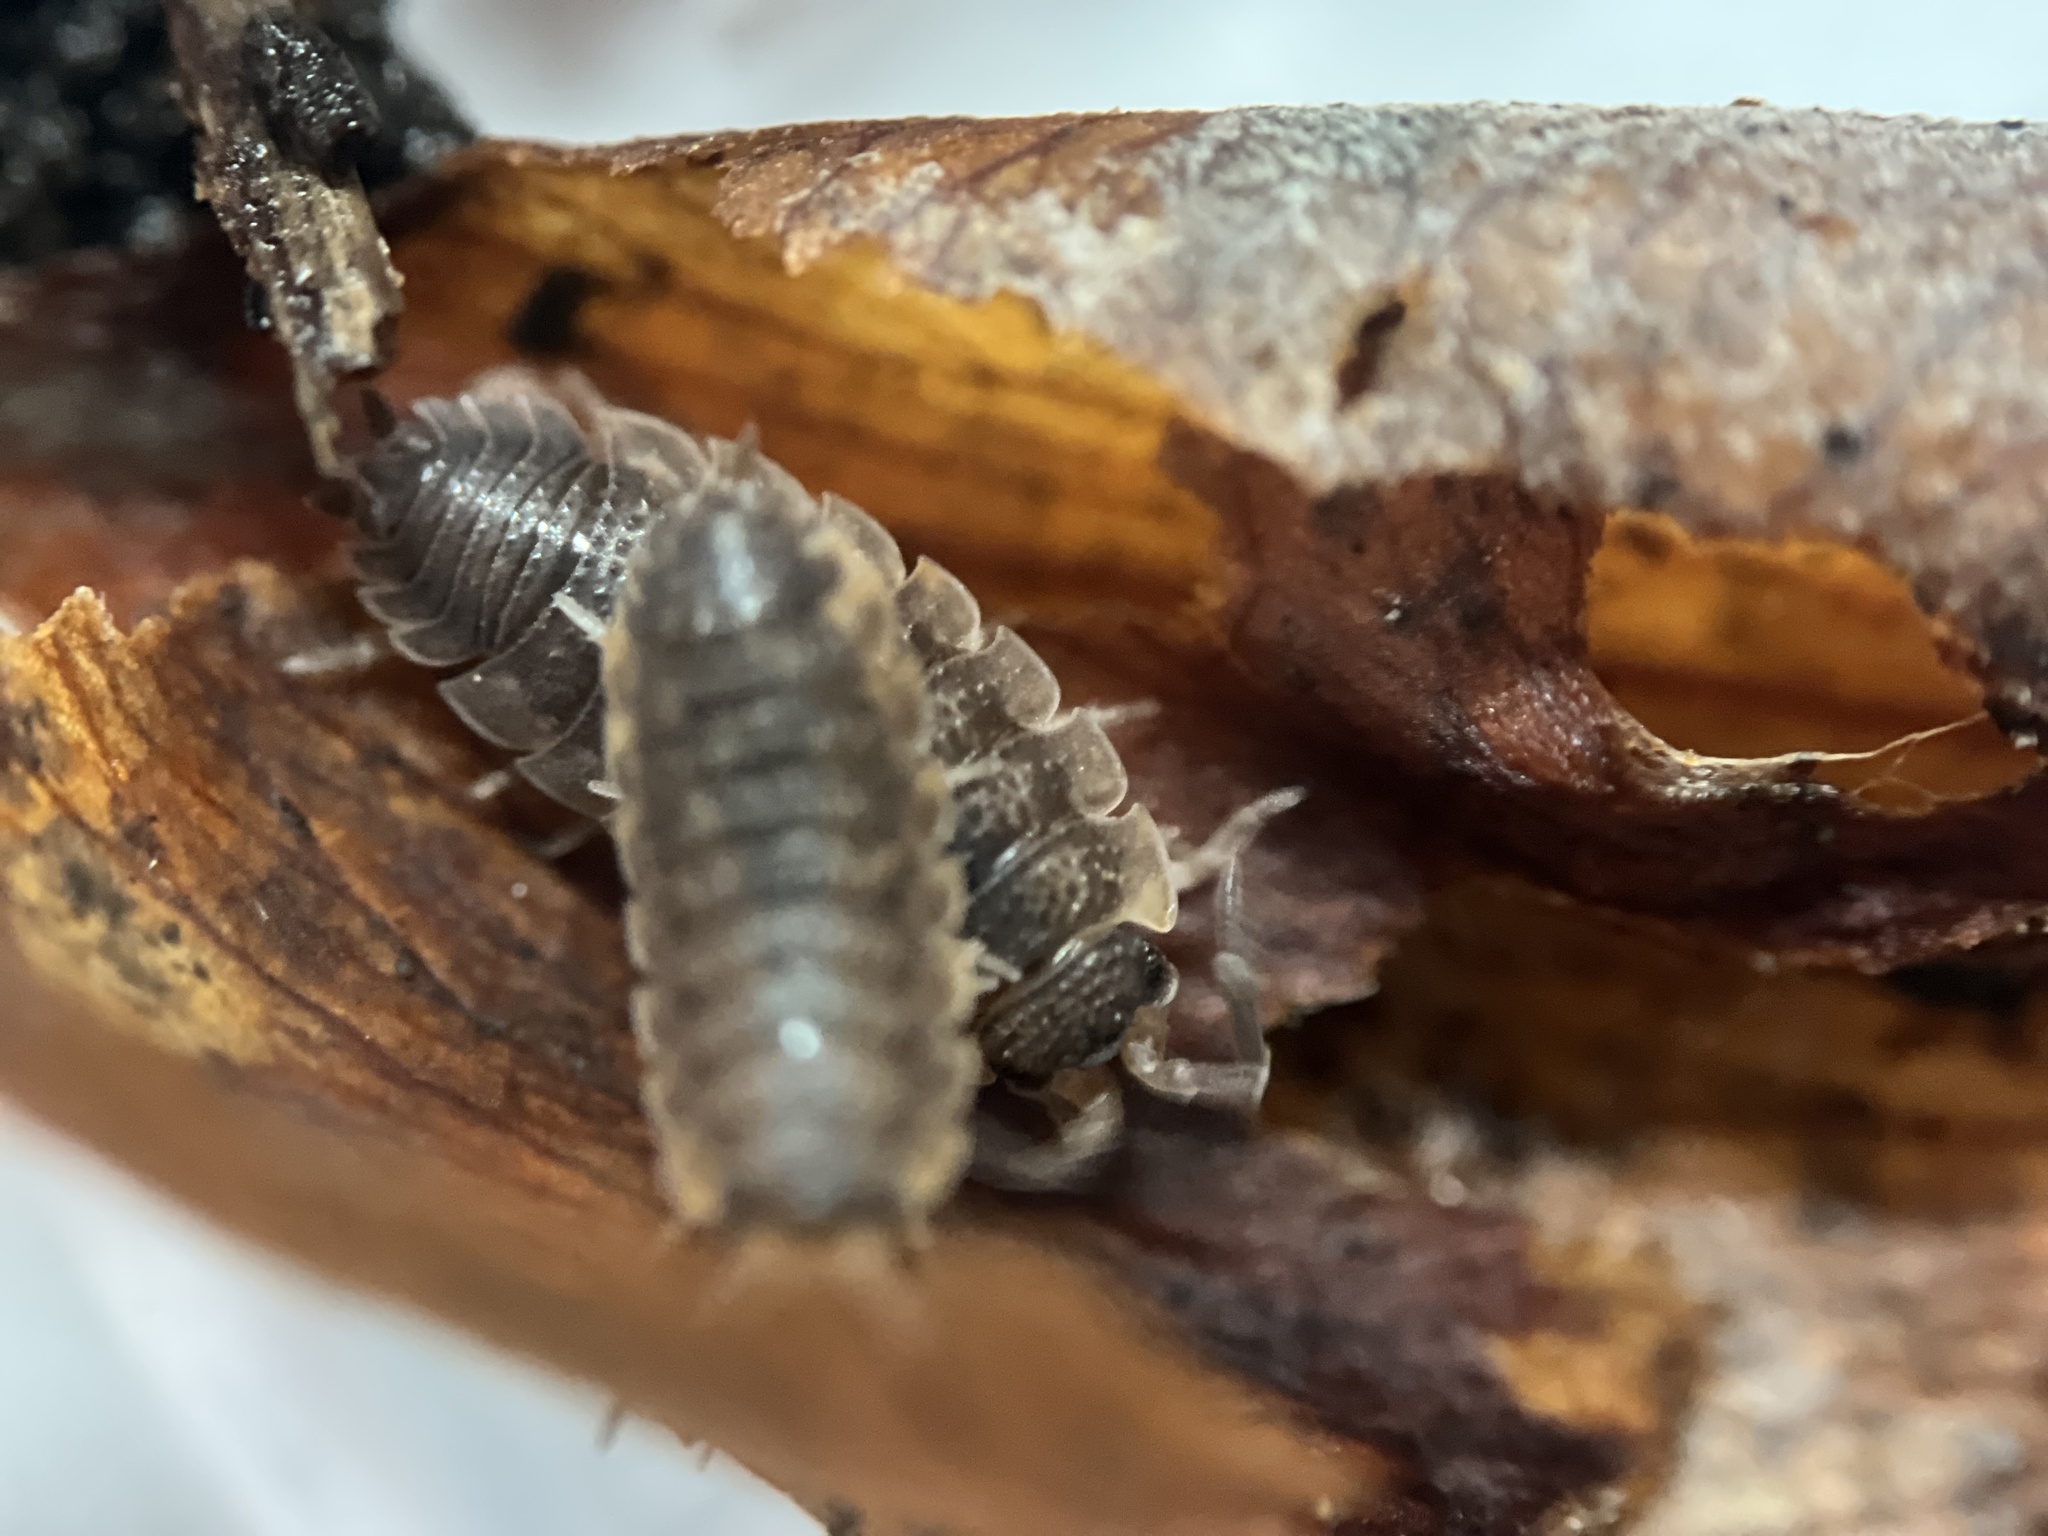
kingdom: Animalia
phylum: Arthropoda
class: Malacostraca
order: Isopoda
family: Porcellionidae
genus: Porcellio
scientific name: Porcellio scaber
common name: Common rough woodlouse
